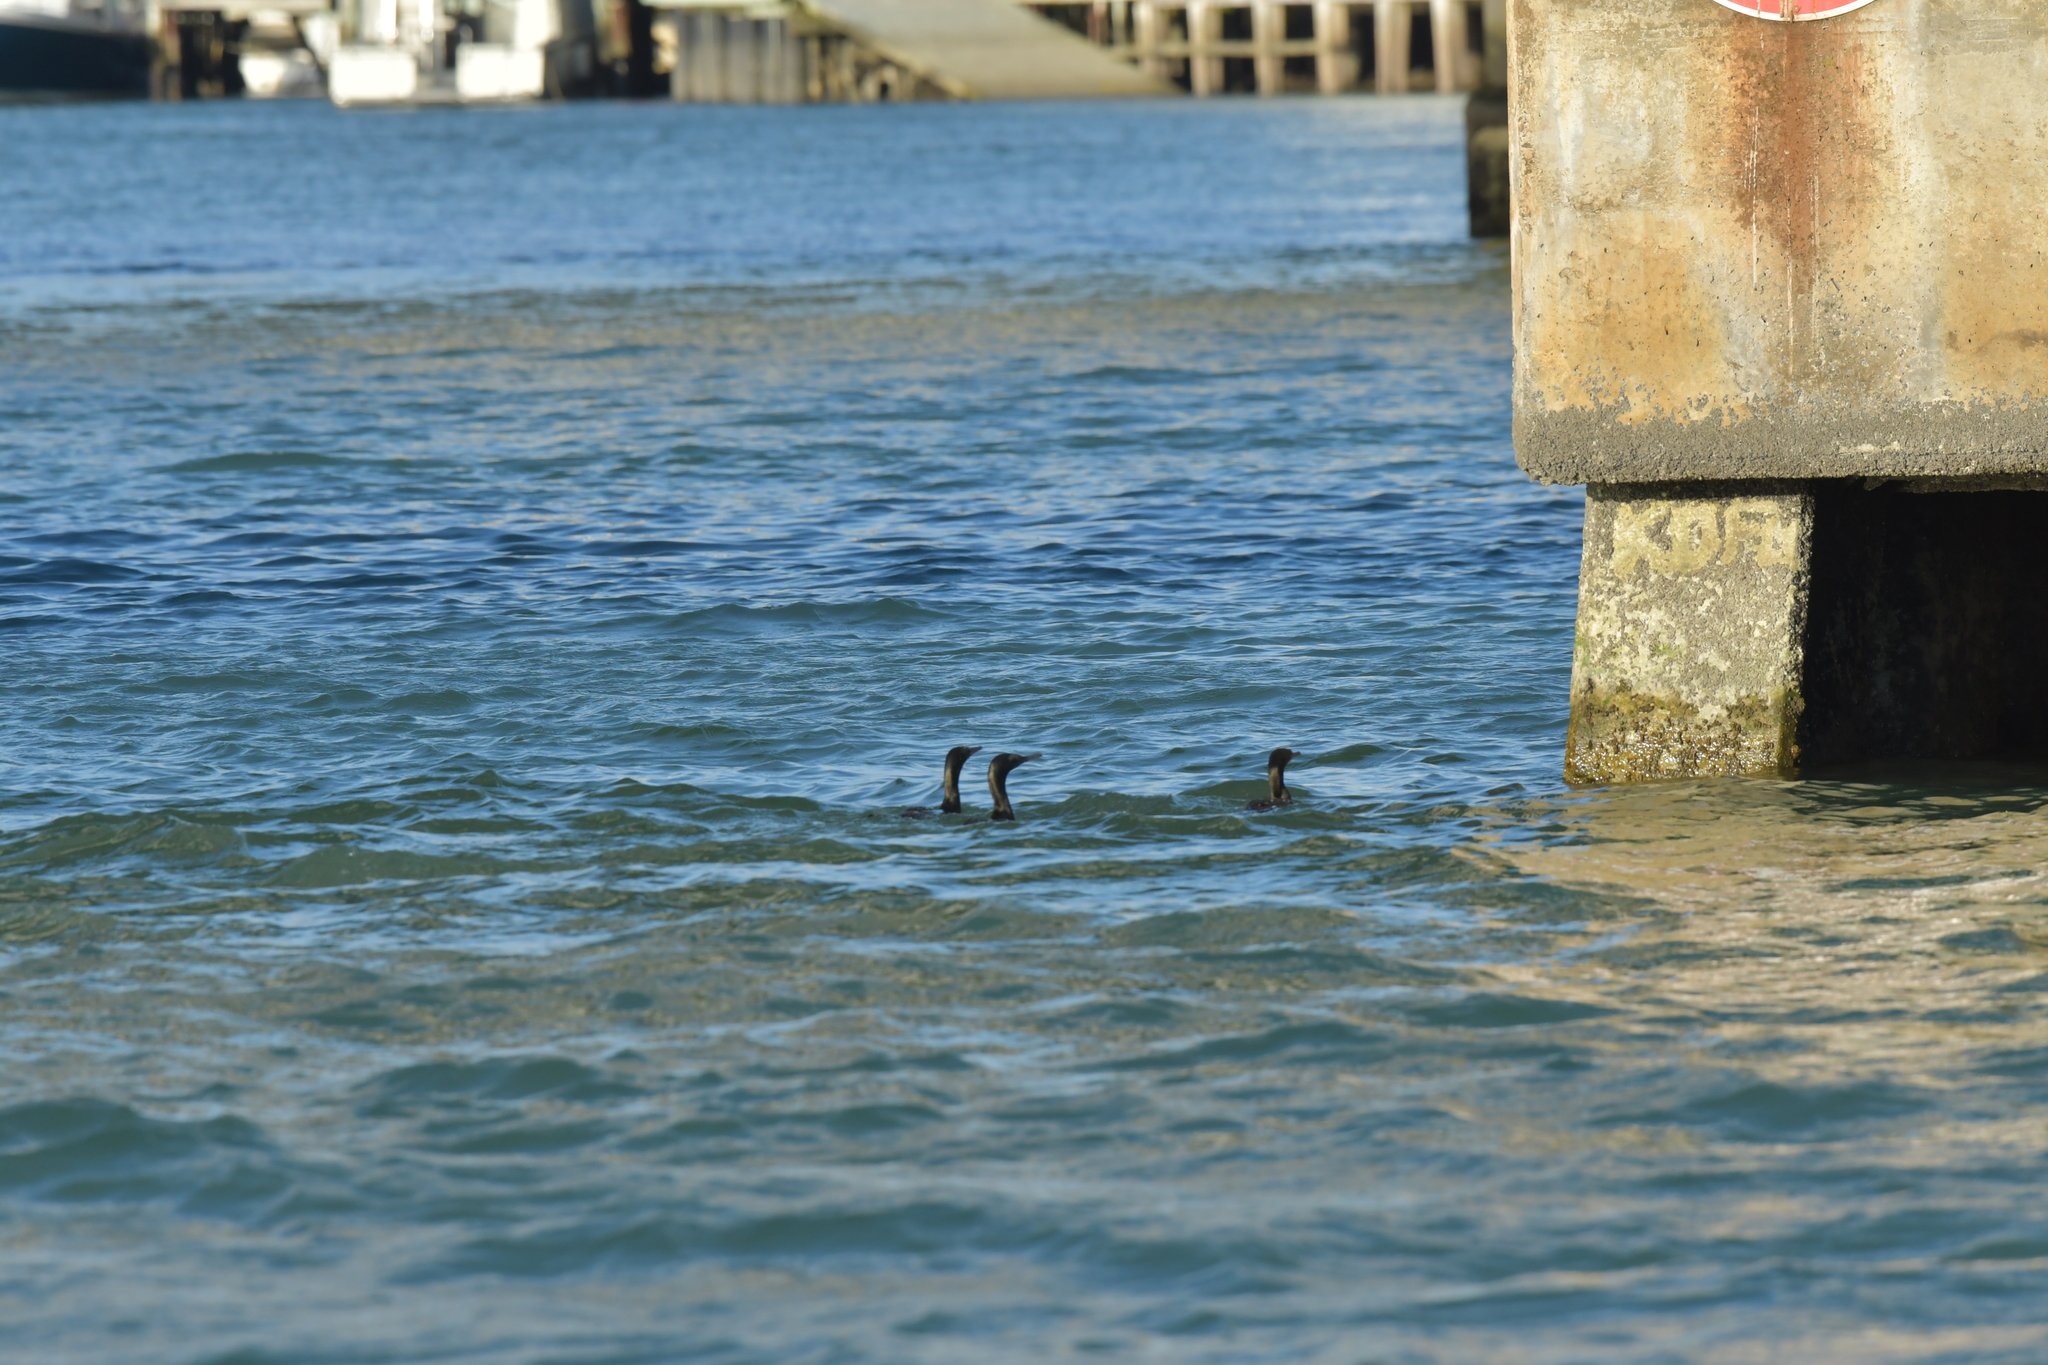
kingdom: Animalia
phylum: Chordata
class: Aves
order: Suliformes
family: Phalacrocoracidae
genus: Phalacrocorax
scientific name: Phalacrocorax sulcirostris
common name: Little black cormorant
